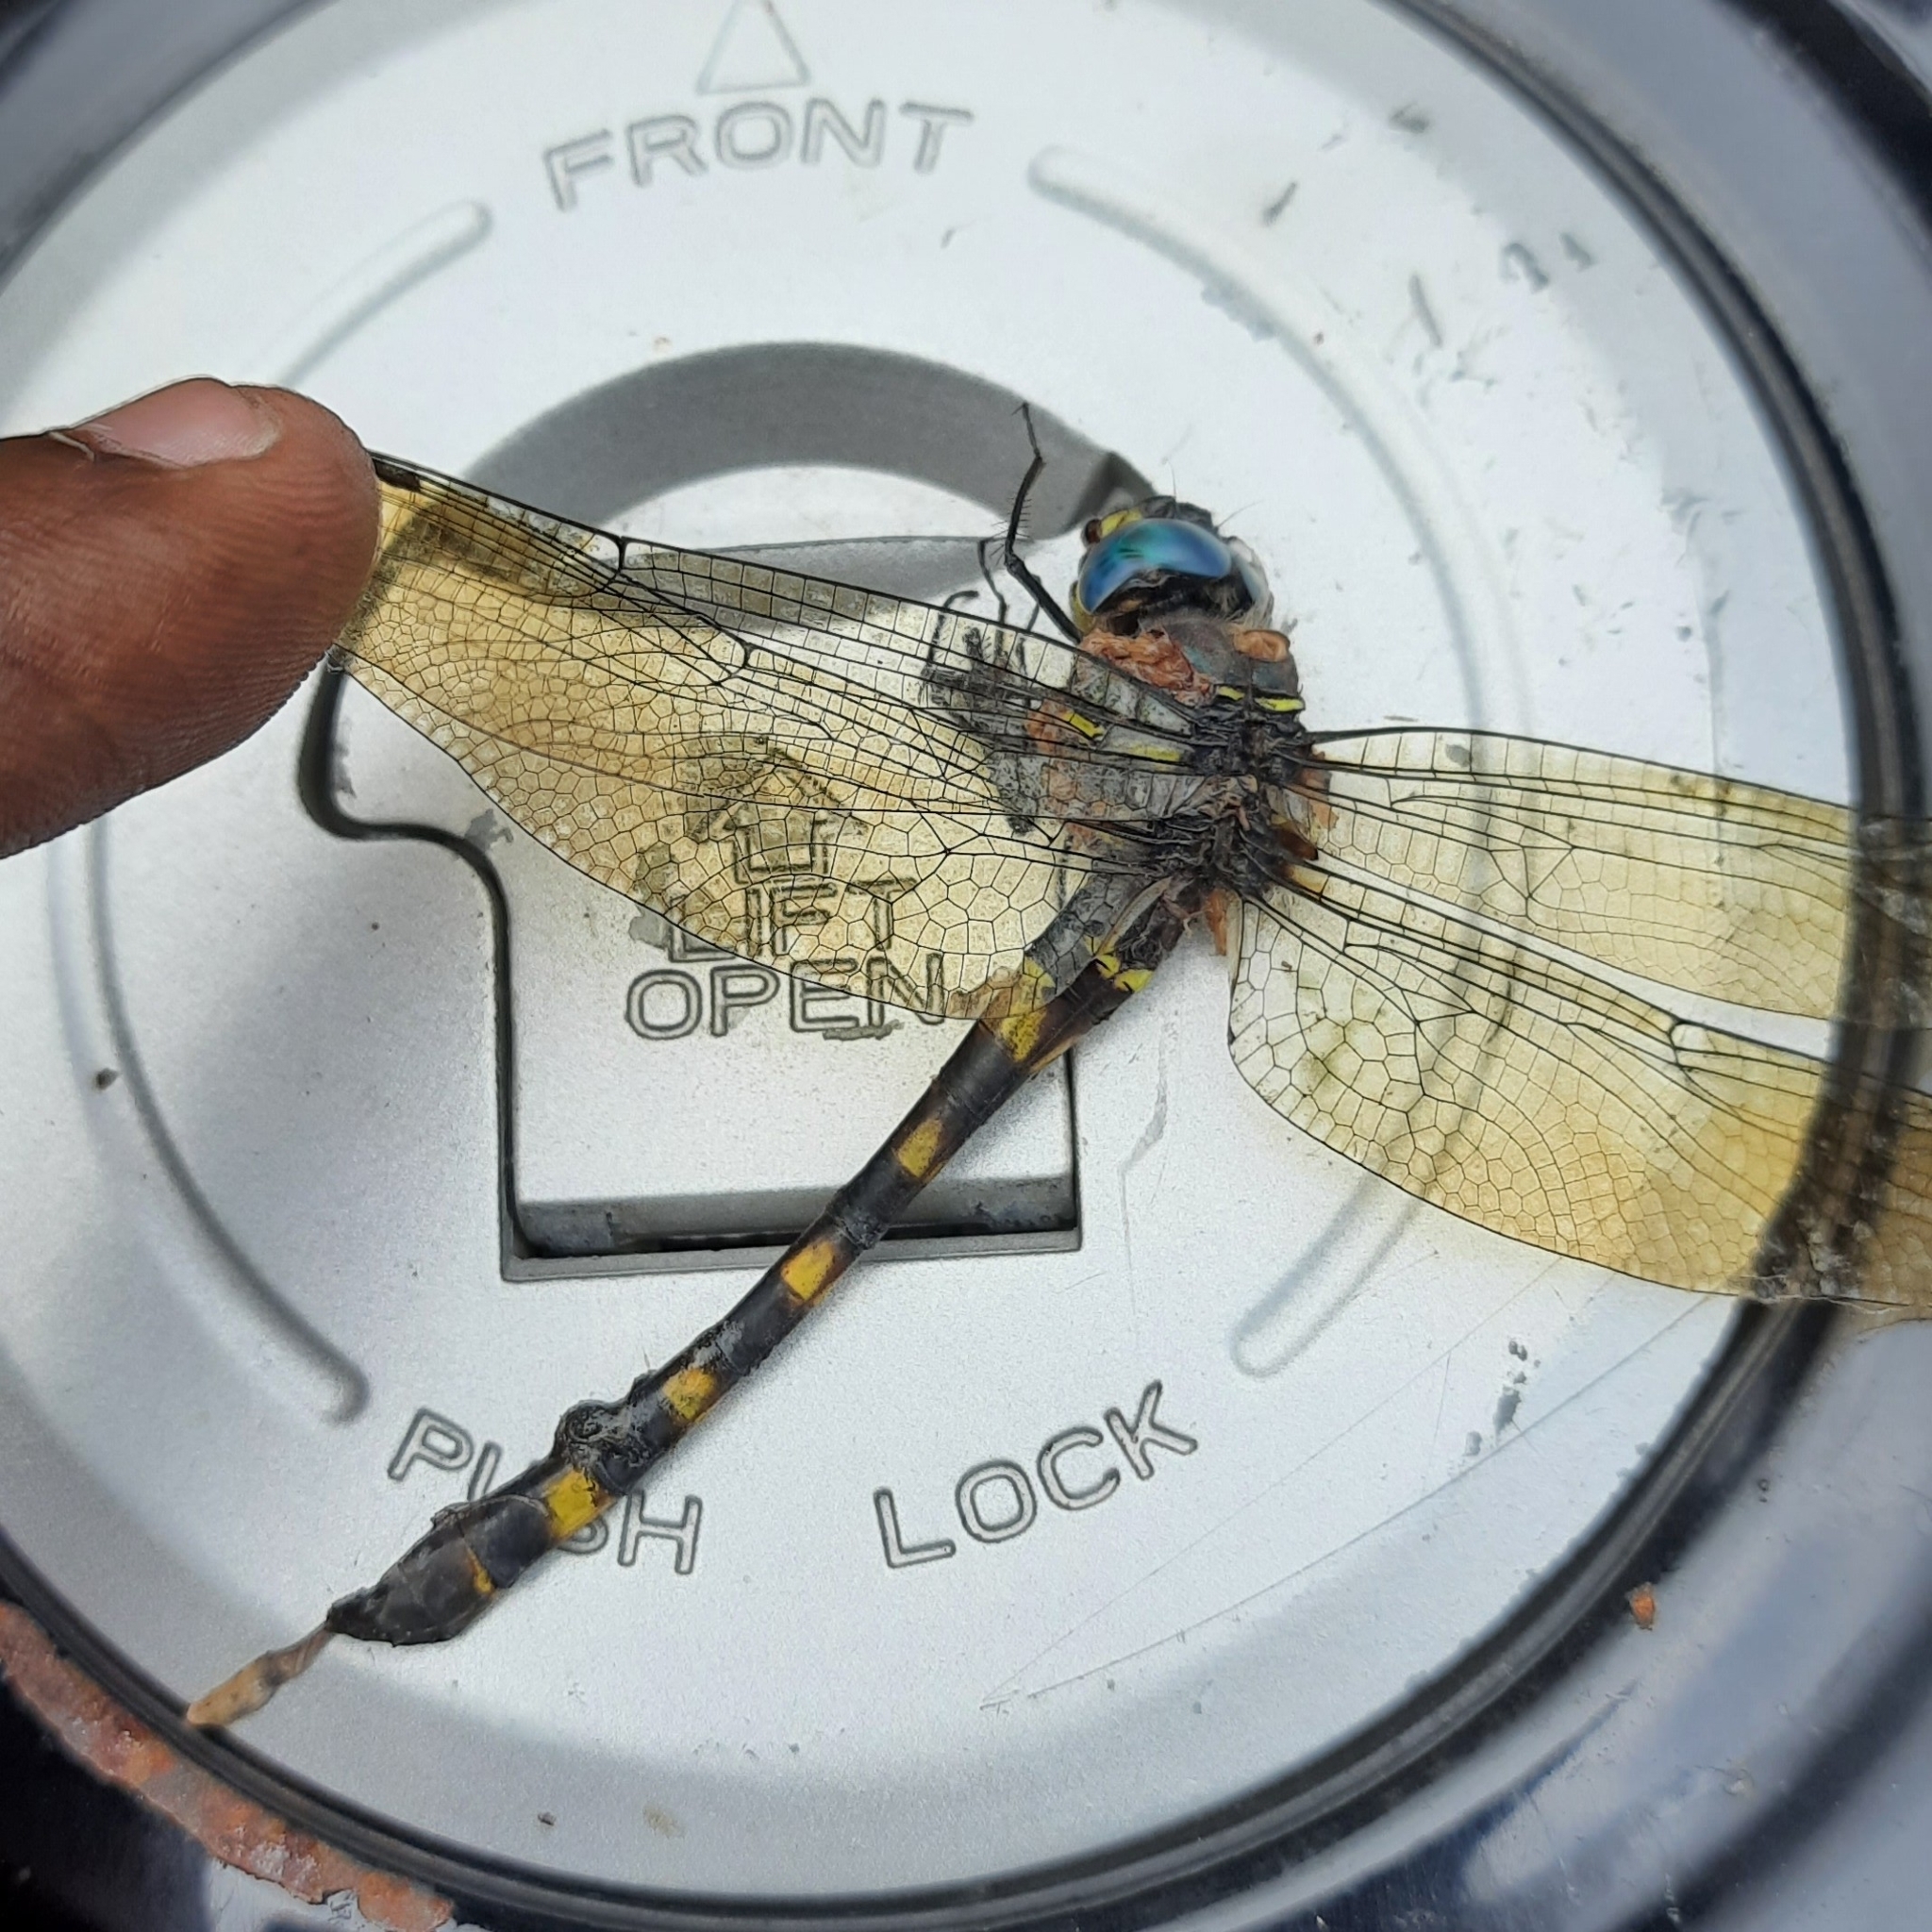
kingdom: Animalia
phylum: Arthropoda
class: Insecta
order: Odonata
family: Macromiidae
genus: Epophthalmia
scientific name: Epophthalmia vittata
